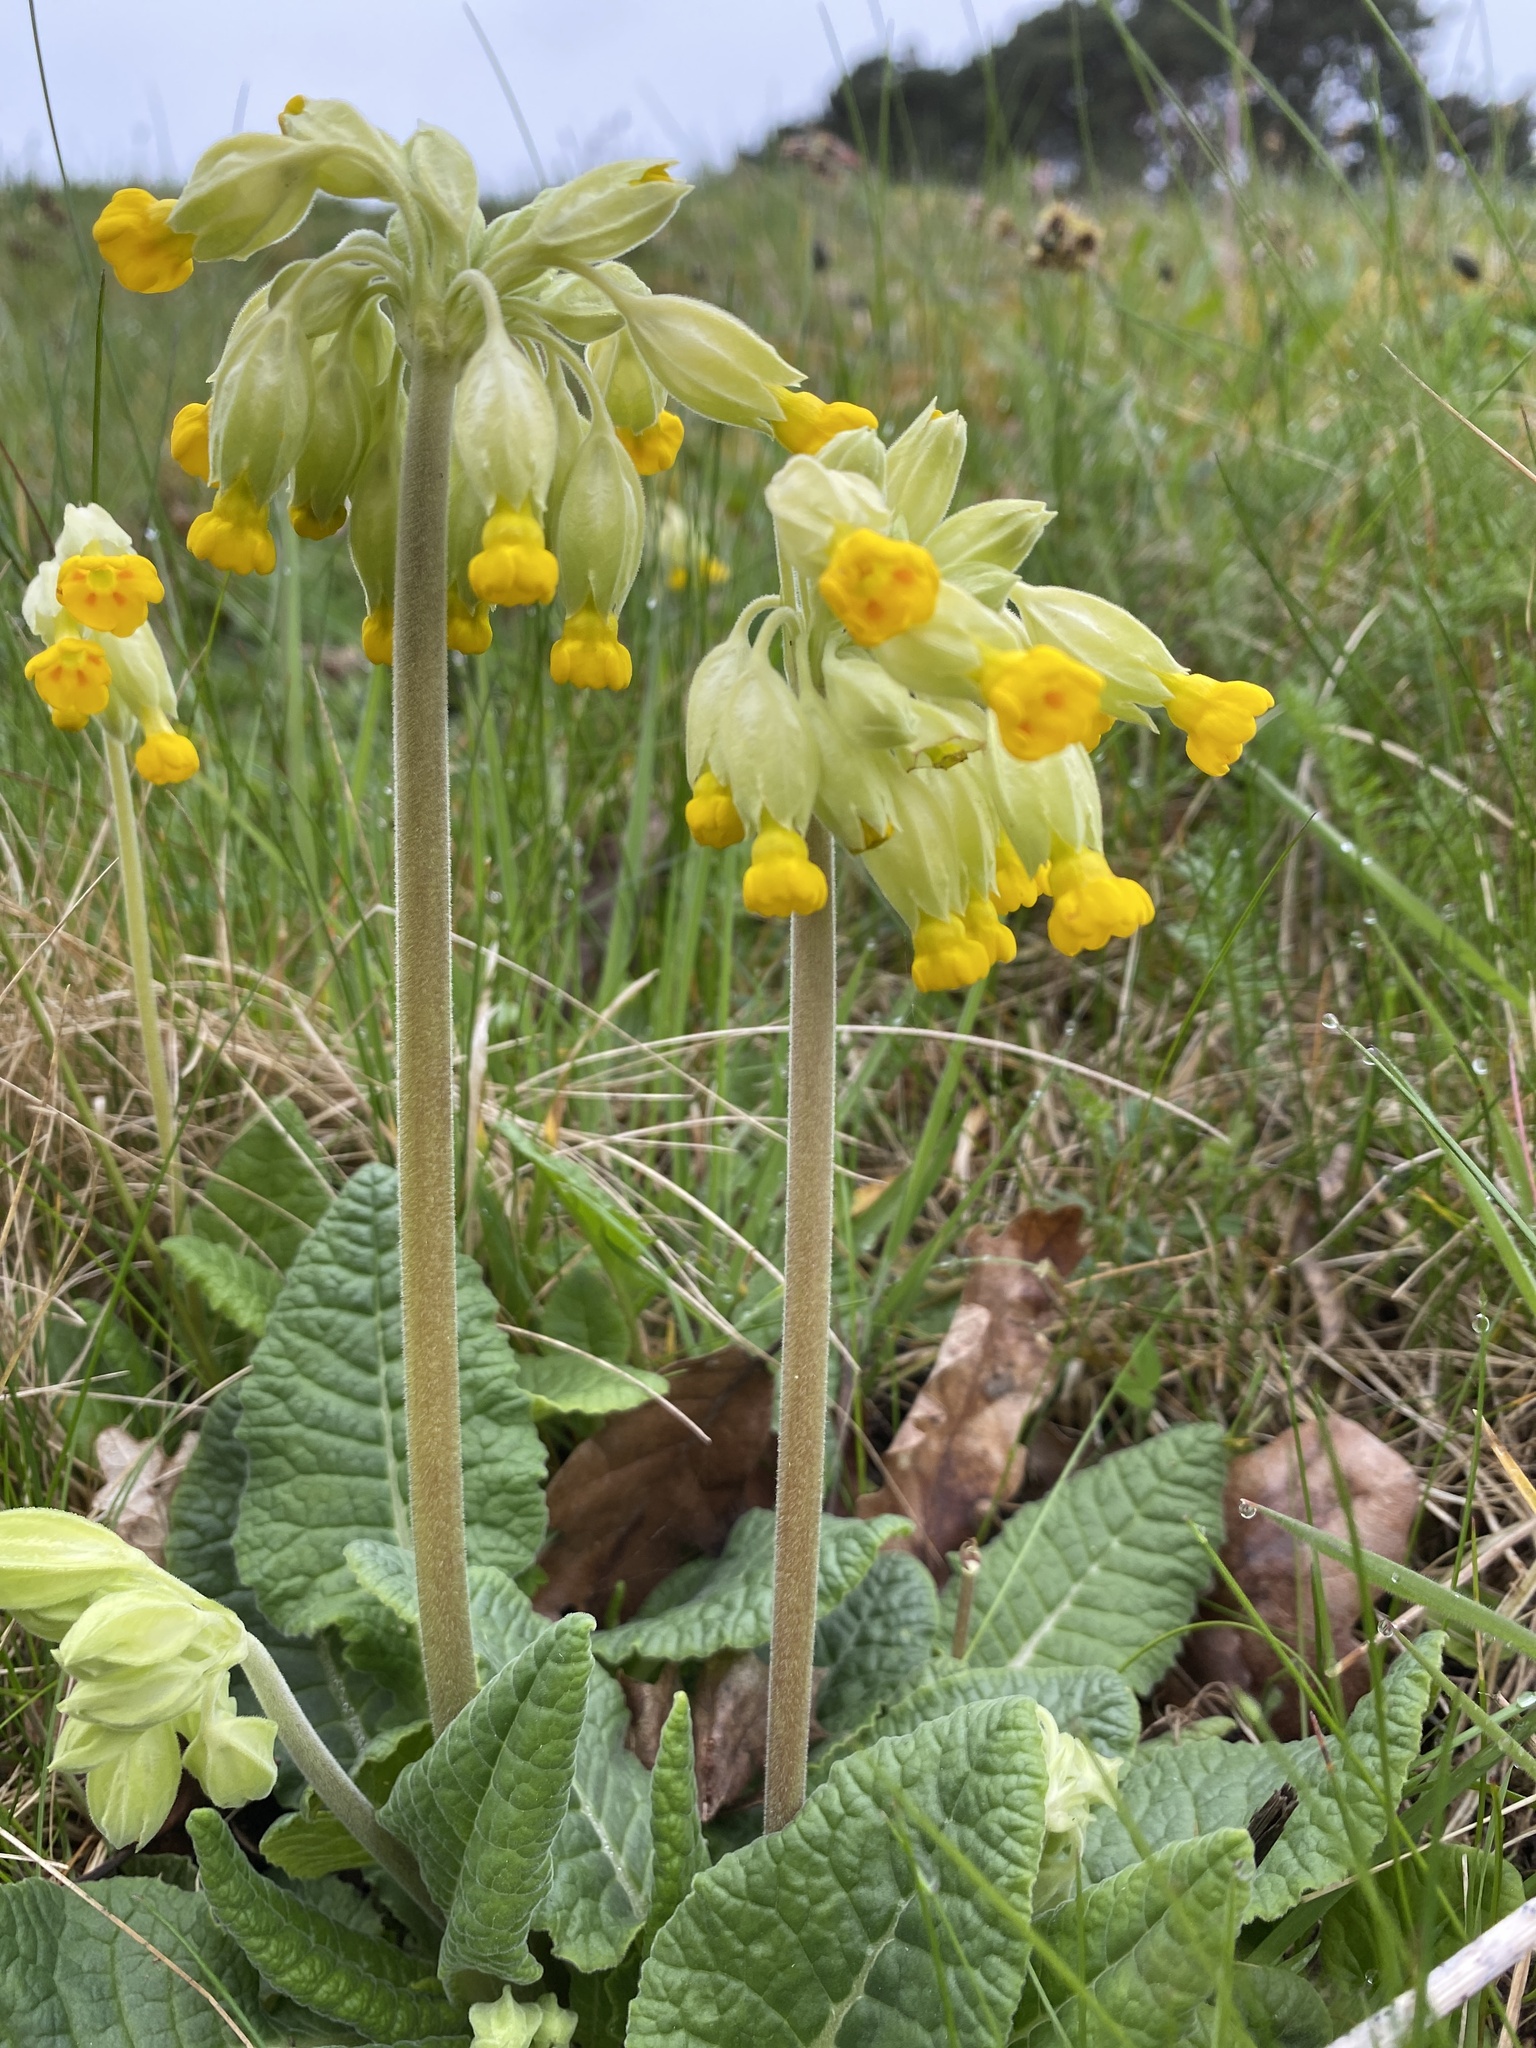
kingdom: Plantae
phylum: Tracheophyta
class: Magnoliopsida
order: Ericales
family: Primulaceae
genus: Primula
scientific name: Primula veris
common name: Cowslip
